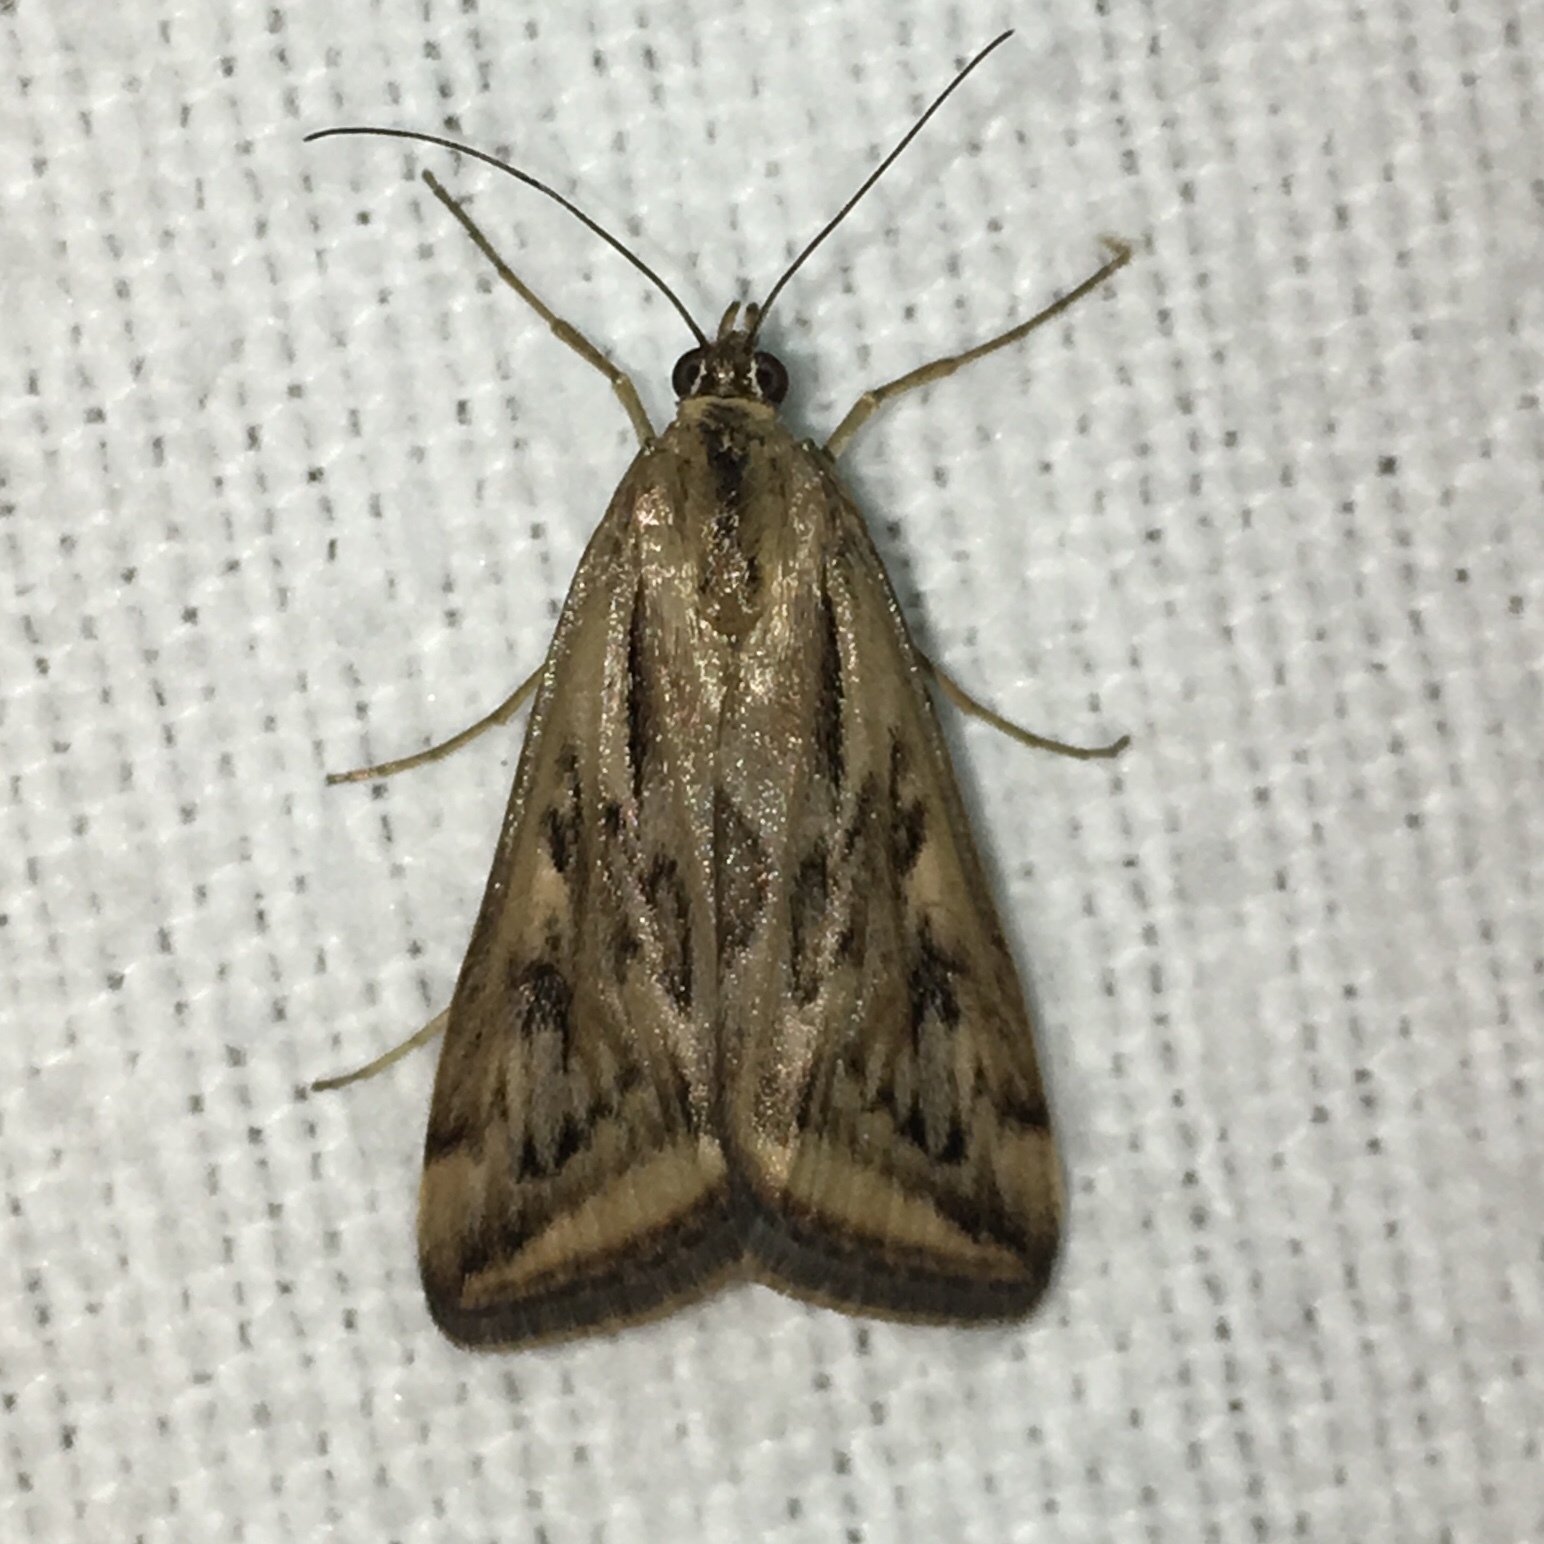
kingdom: Animalia
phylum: Arthropoda
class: Insecta
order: Lepidoptera
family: Crambidae
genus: Loxostege
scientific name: Loxostege cereralis
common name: Alfalfa webworm moth
